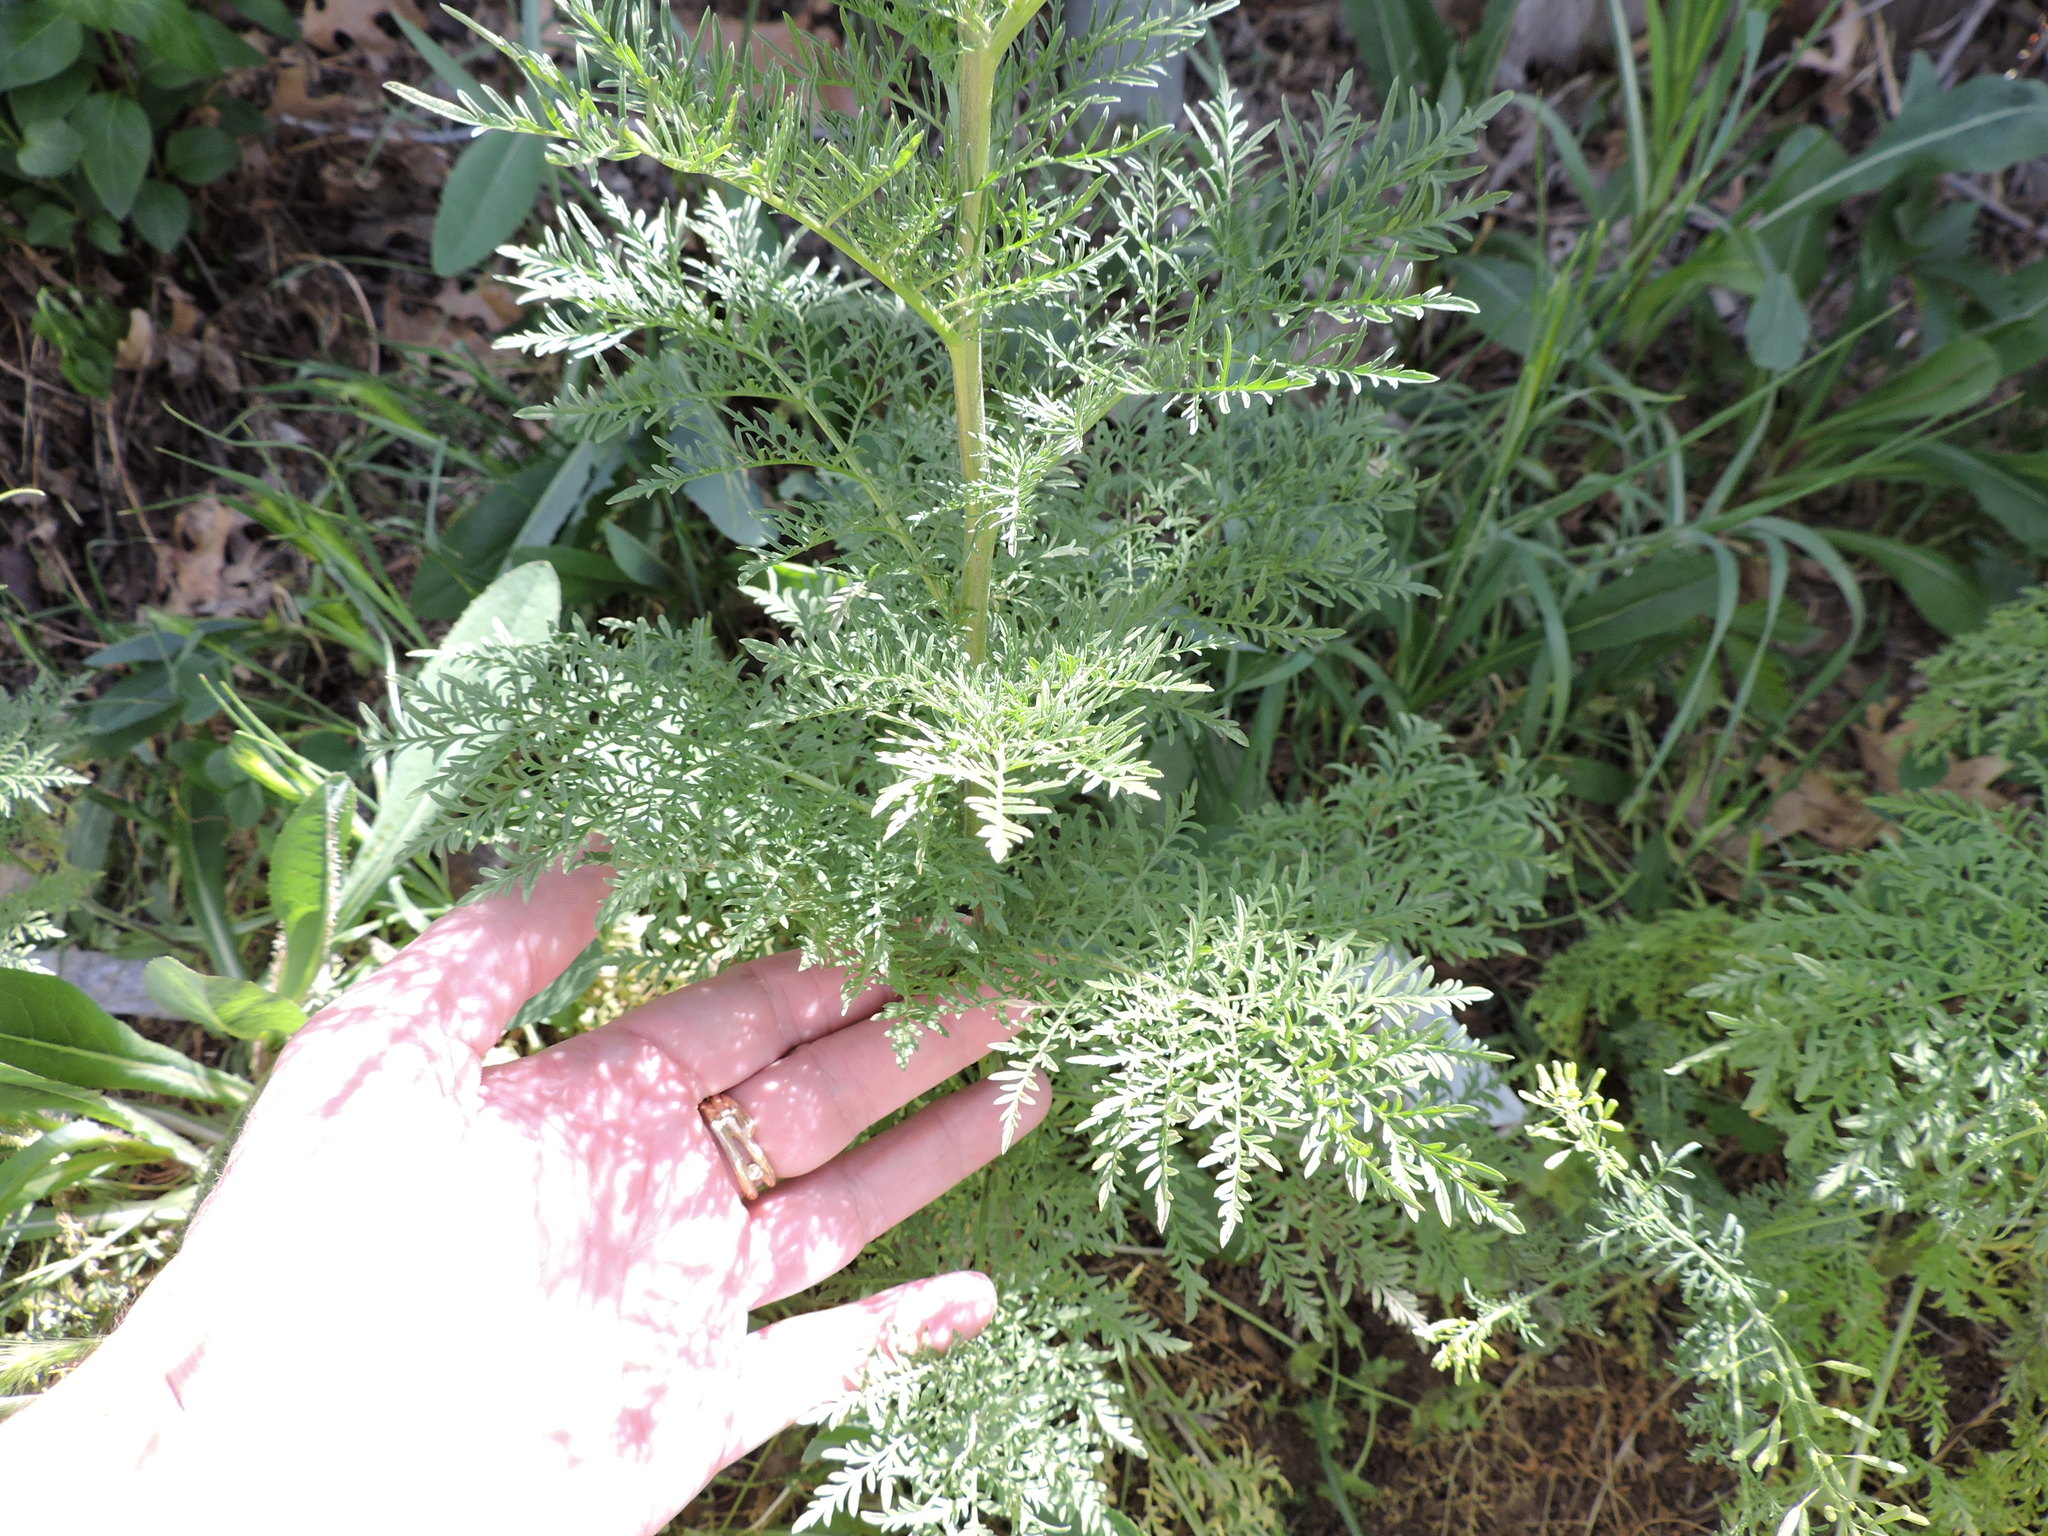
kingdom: Plantae
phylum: Tracheophyta
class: Magnoliopsida
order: Brassicales
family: Brassicaceae
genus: Descurainia
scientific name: Descurainia sophia
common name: Flixweed
